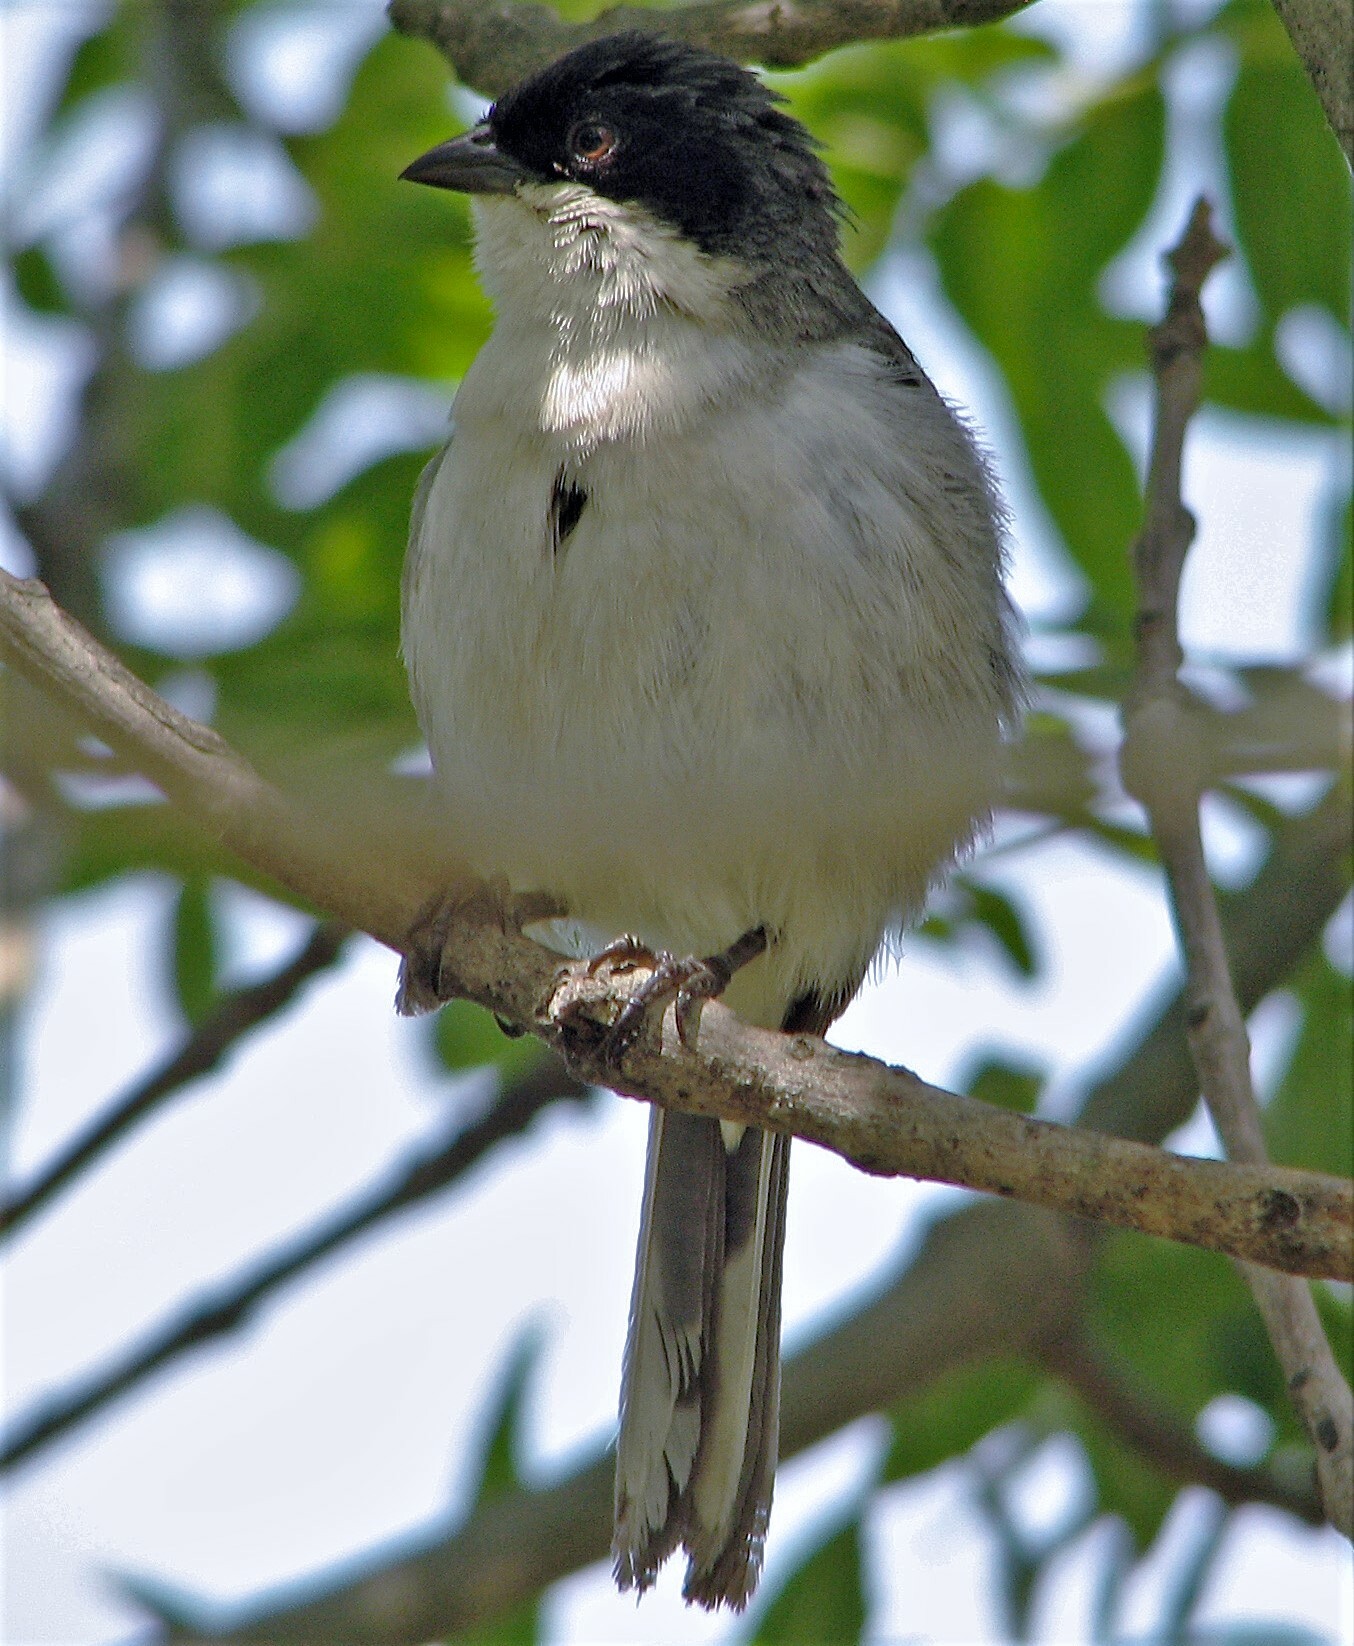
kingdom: Animalia
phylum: Chordata
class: Aves
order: Passeriformes
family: Thraupidae
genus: Microspingus
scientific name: Microspingus melanoleucus
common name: Black-capped warbling-finch
